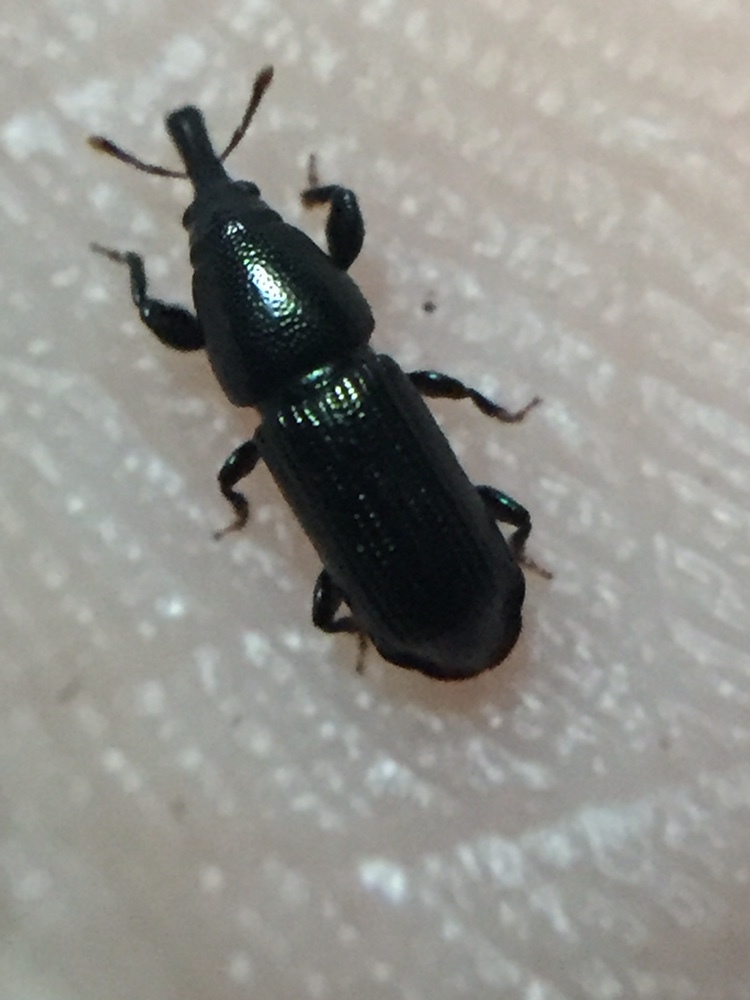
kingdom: Animalia
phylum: Arthropoda
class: Insecta
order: Coleoptera
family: Curculionidae
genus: Torostoma
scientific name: Torostoma apicale
